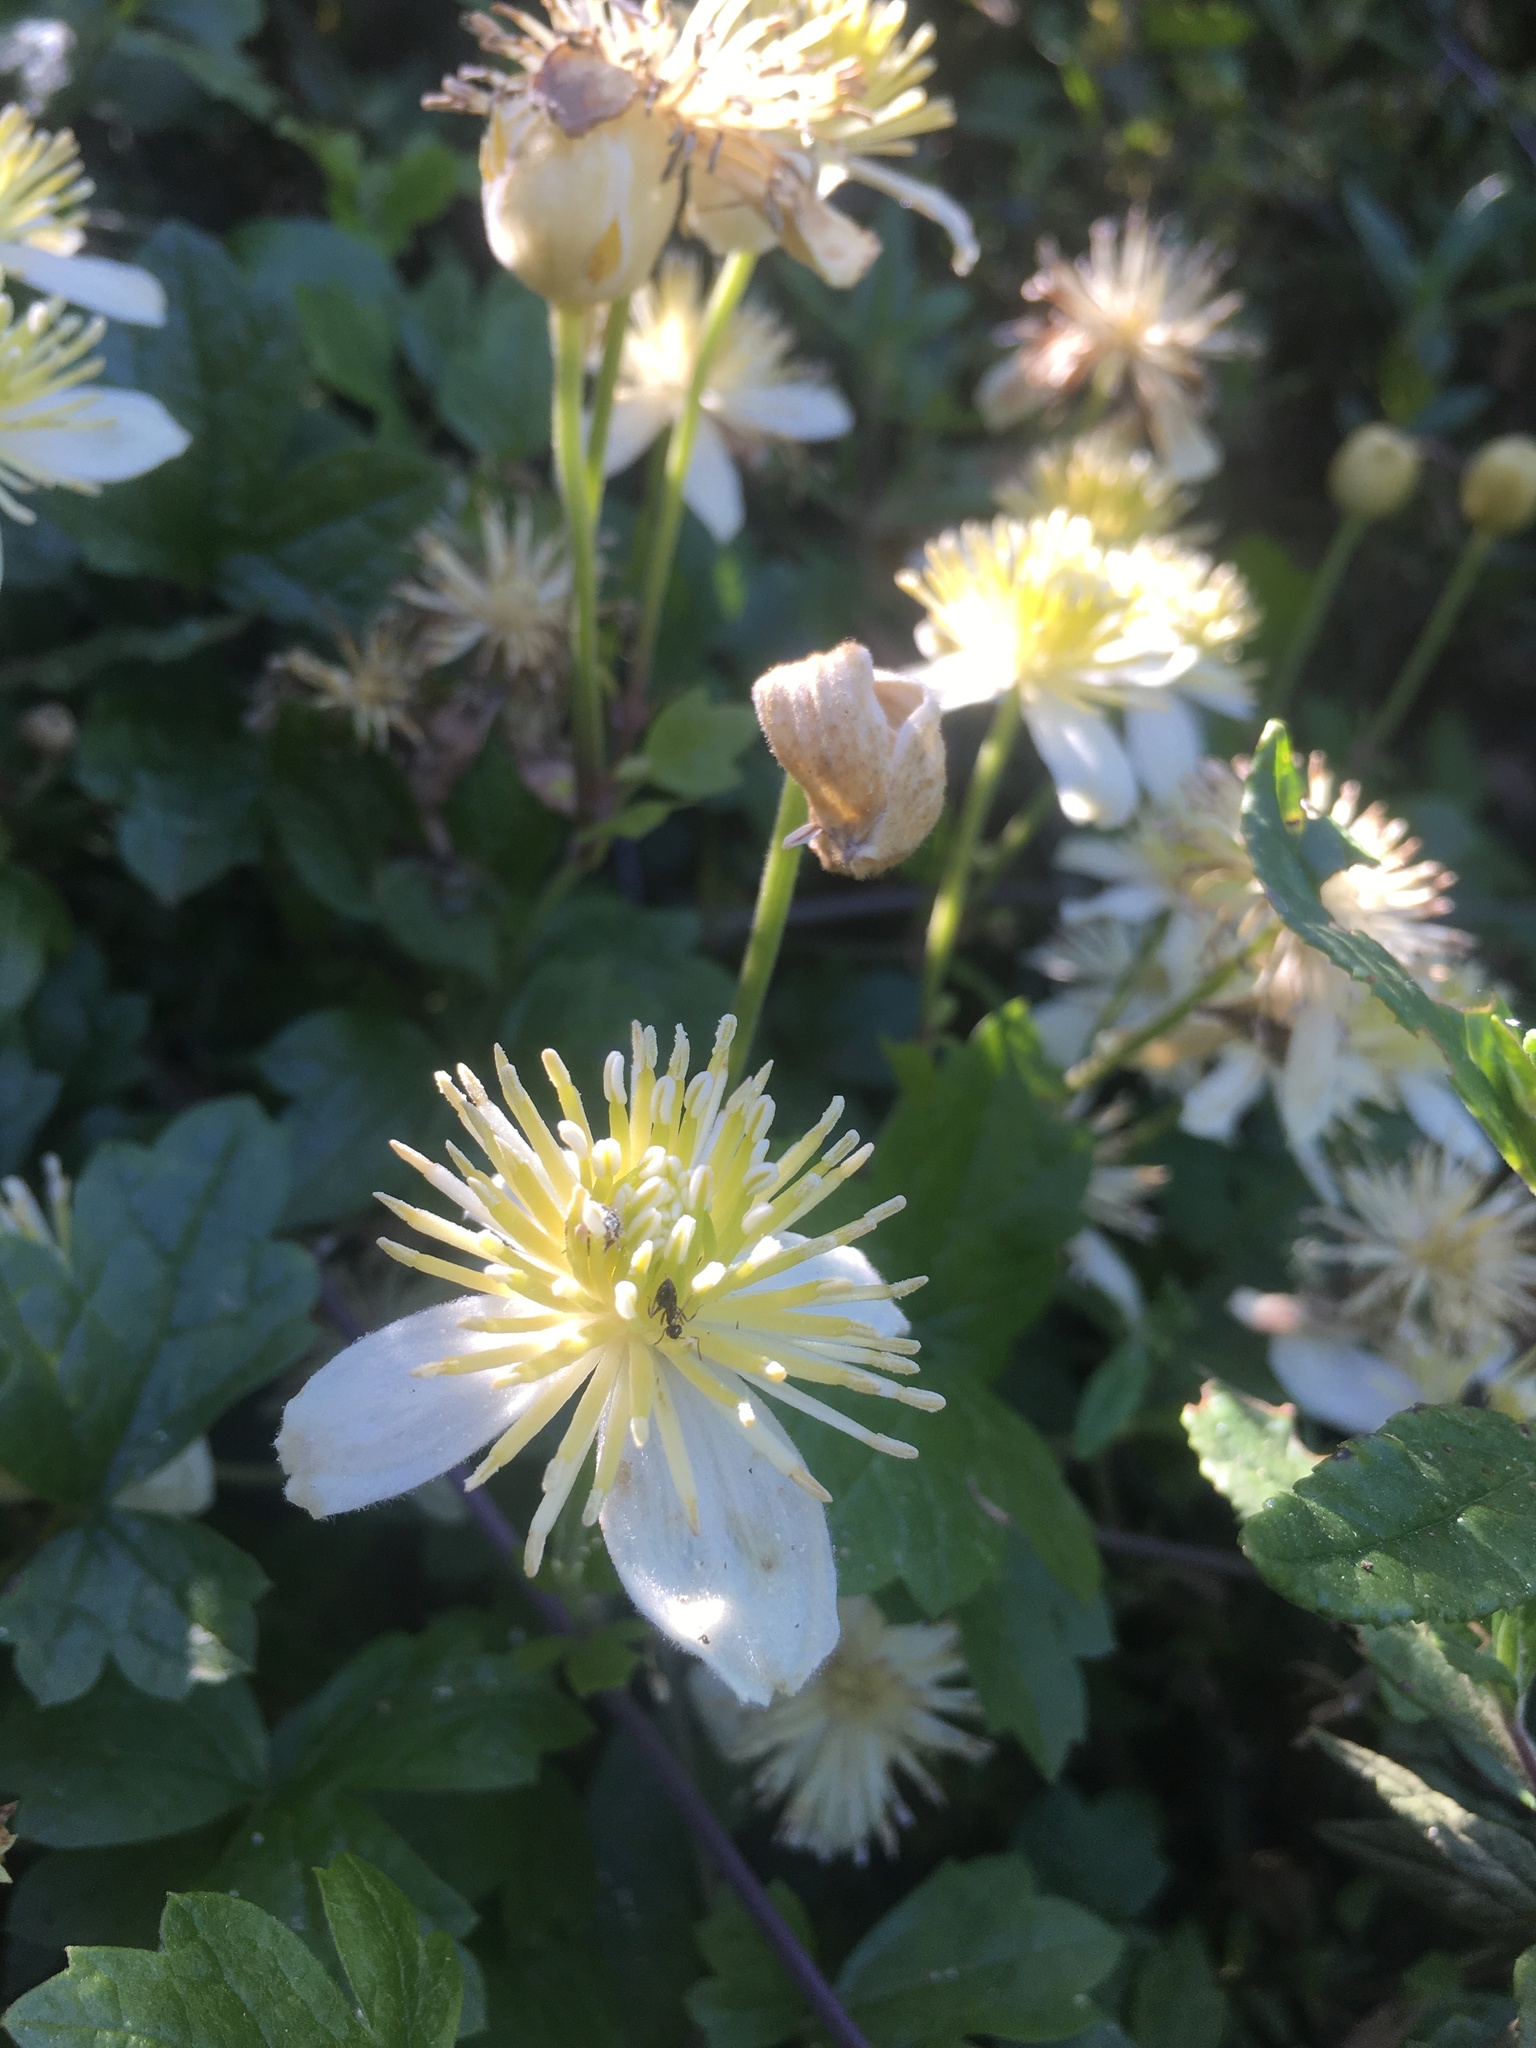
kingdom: Plantae
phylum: Tracheophyta
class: Magnoliopsida
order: Ranunculales
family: Ranunculaceae
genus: Clematis
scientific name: Clematis lasiantha
